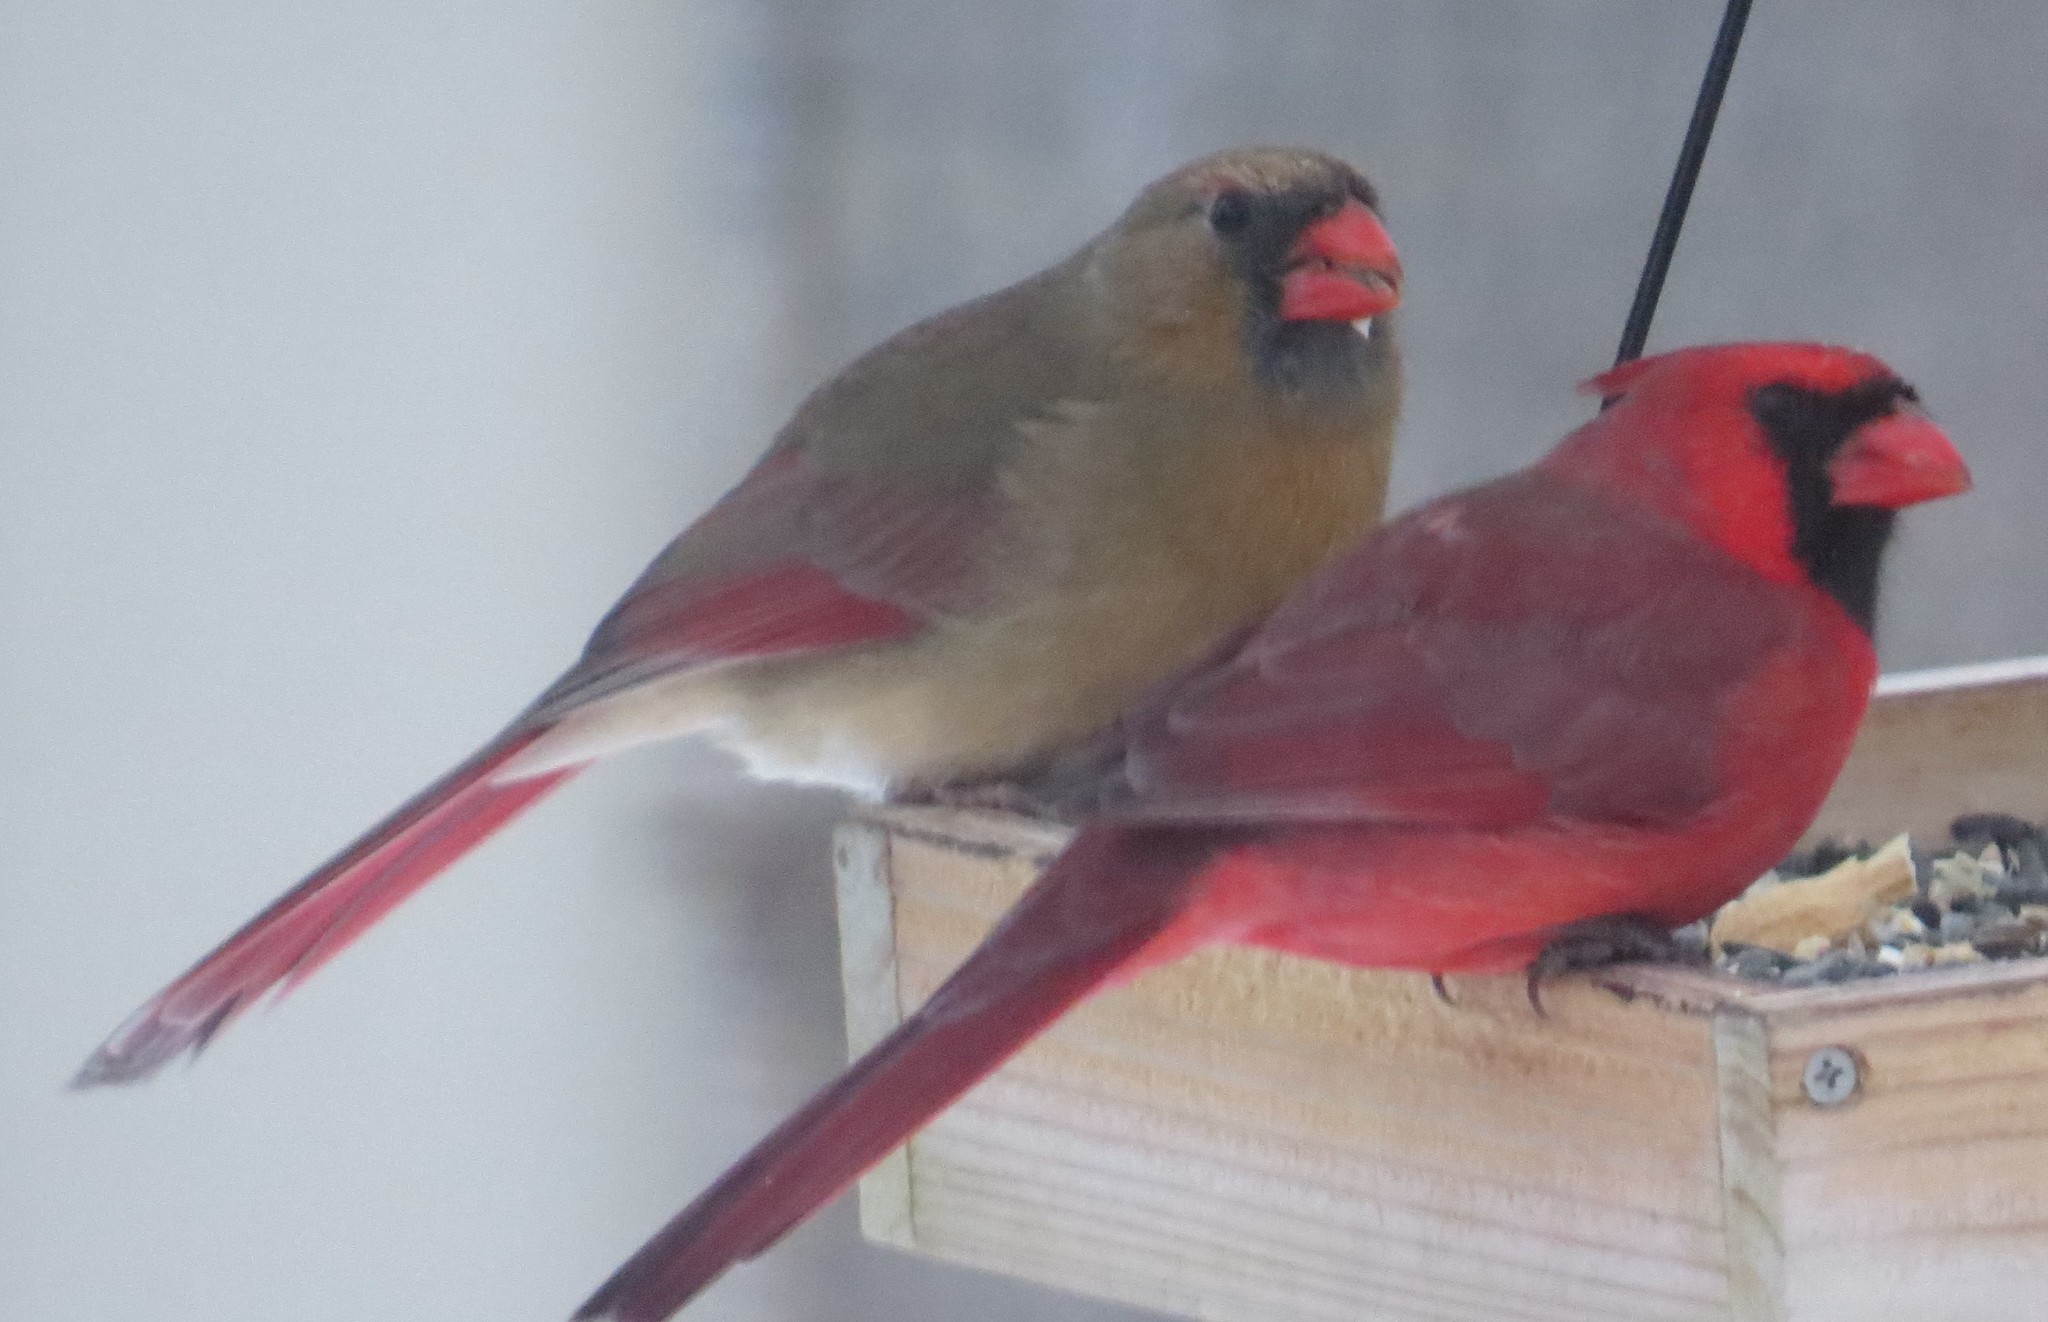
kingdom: Animalia
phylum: Chordata
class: Aves
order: Passeriformes
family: Cardinalidae
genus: Cardinalis
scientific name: Cardinalis cardinalis
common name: Northern cardinal
